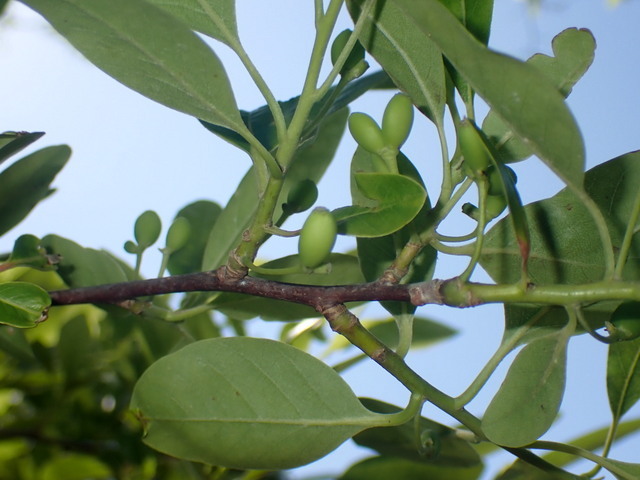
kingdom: Plantae
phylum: Tracheophyta
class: Magnoliopsida
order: Cornales
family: Nyssaceae
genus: Nyssa
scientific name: Nyssa ogeche
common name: Ogeechee tupelo
